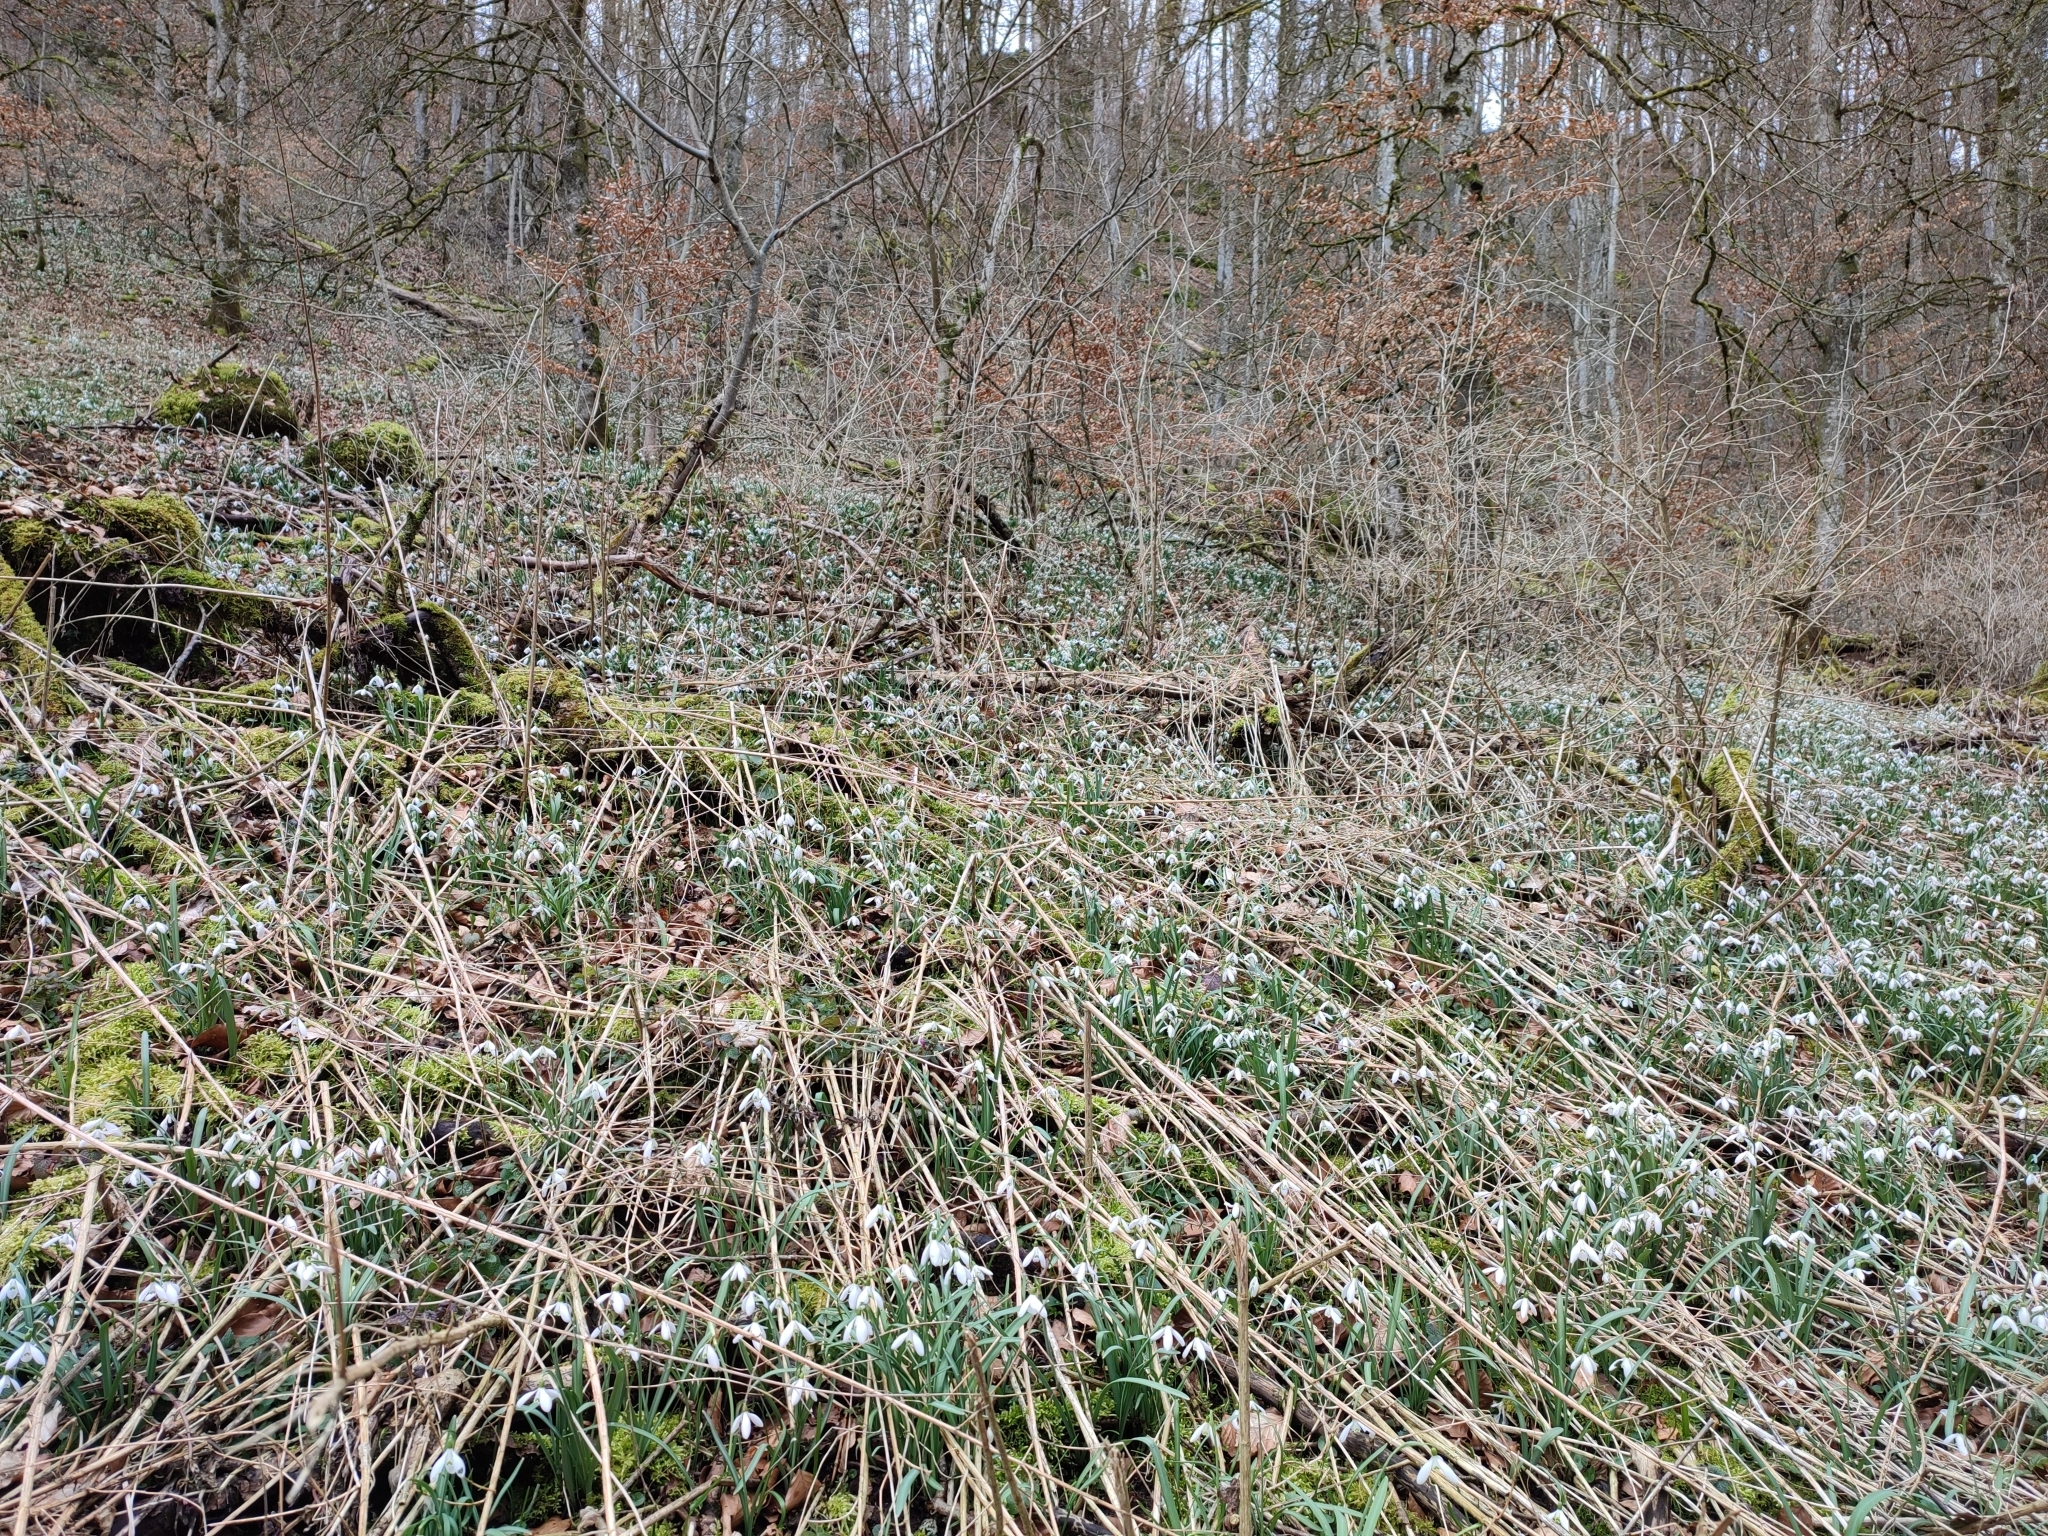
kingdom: Plantae
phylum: Tracheophyta
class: Liliopsida
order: Asparagales
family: Amaryllidaceae
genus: Galanthus
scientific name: Galanthus nivalis
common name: Snowdrop
